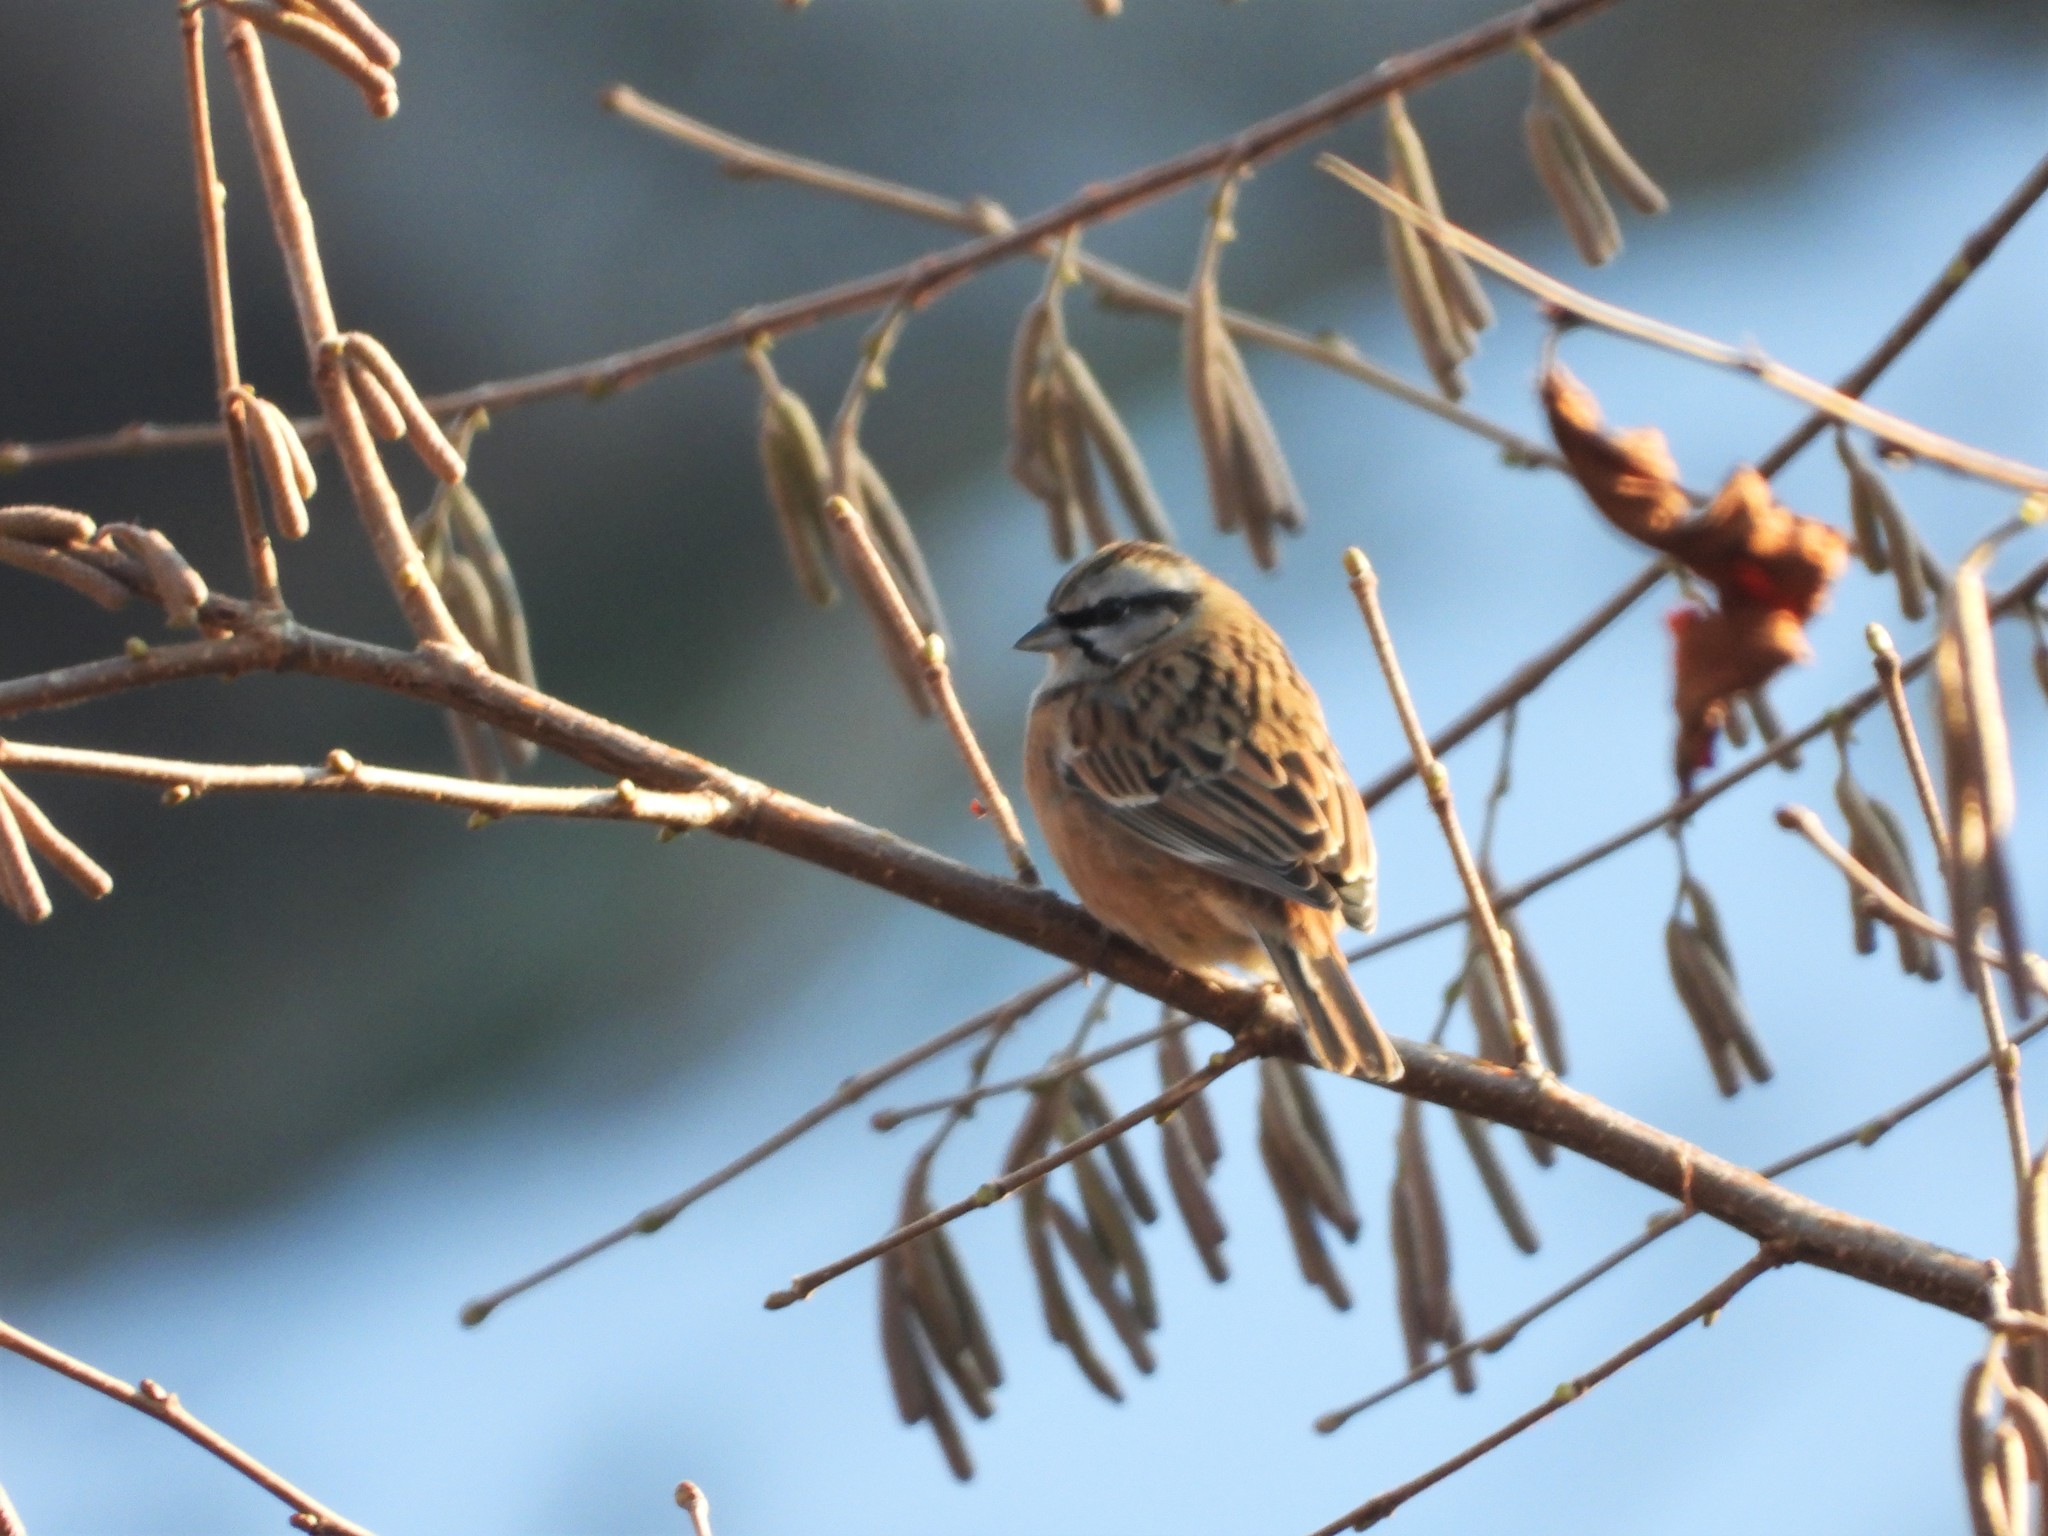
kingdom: Animalia
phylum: Chordata
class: Aves
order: Passeriformes
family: Emberizidae
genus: Emberiza
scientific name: Emberiza cia
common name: Rock bunting
